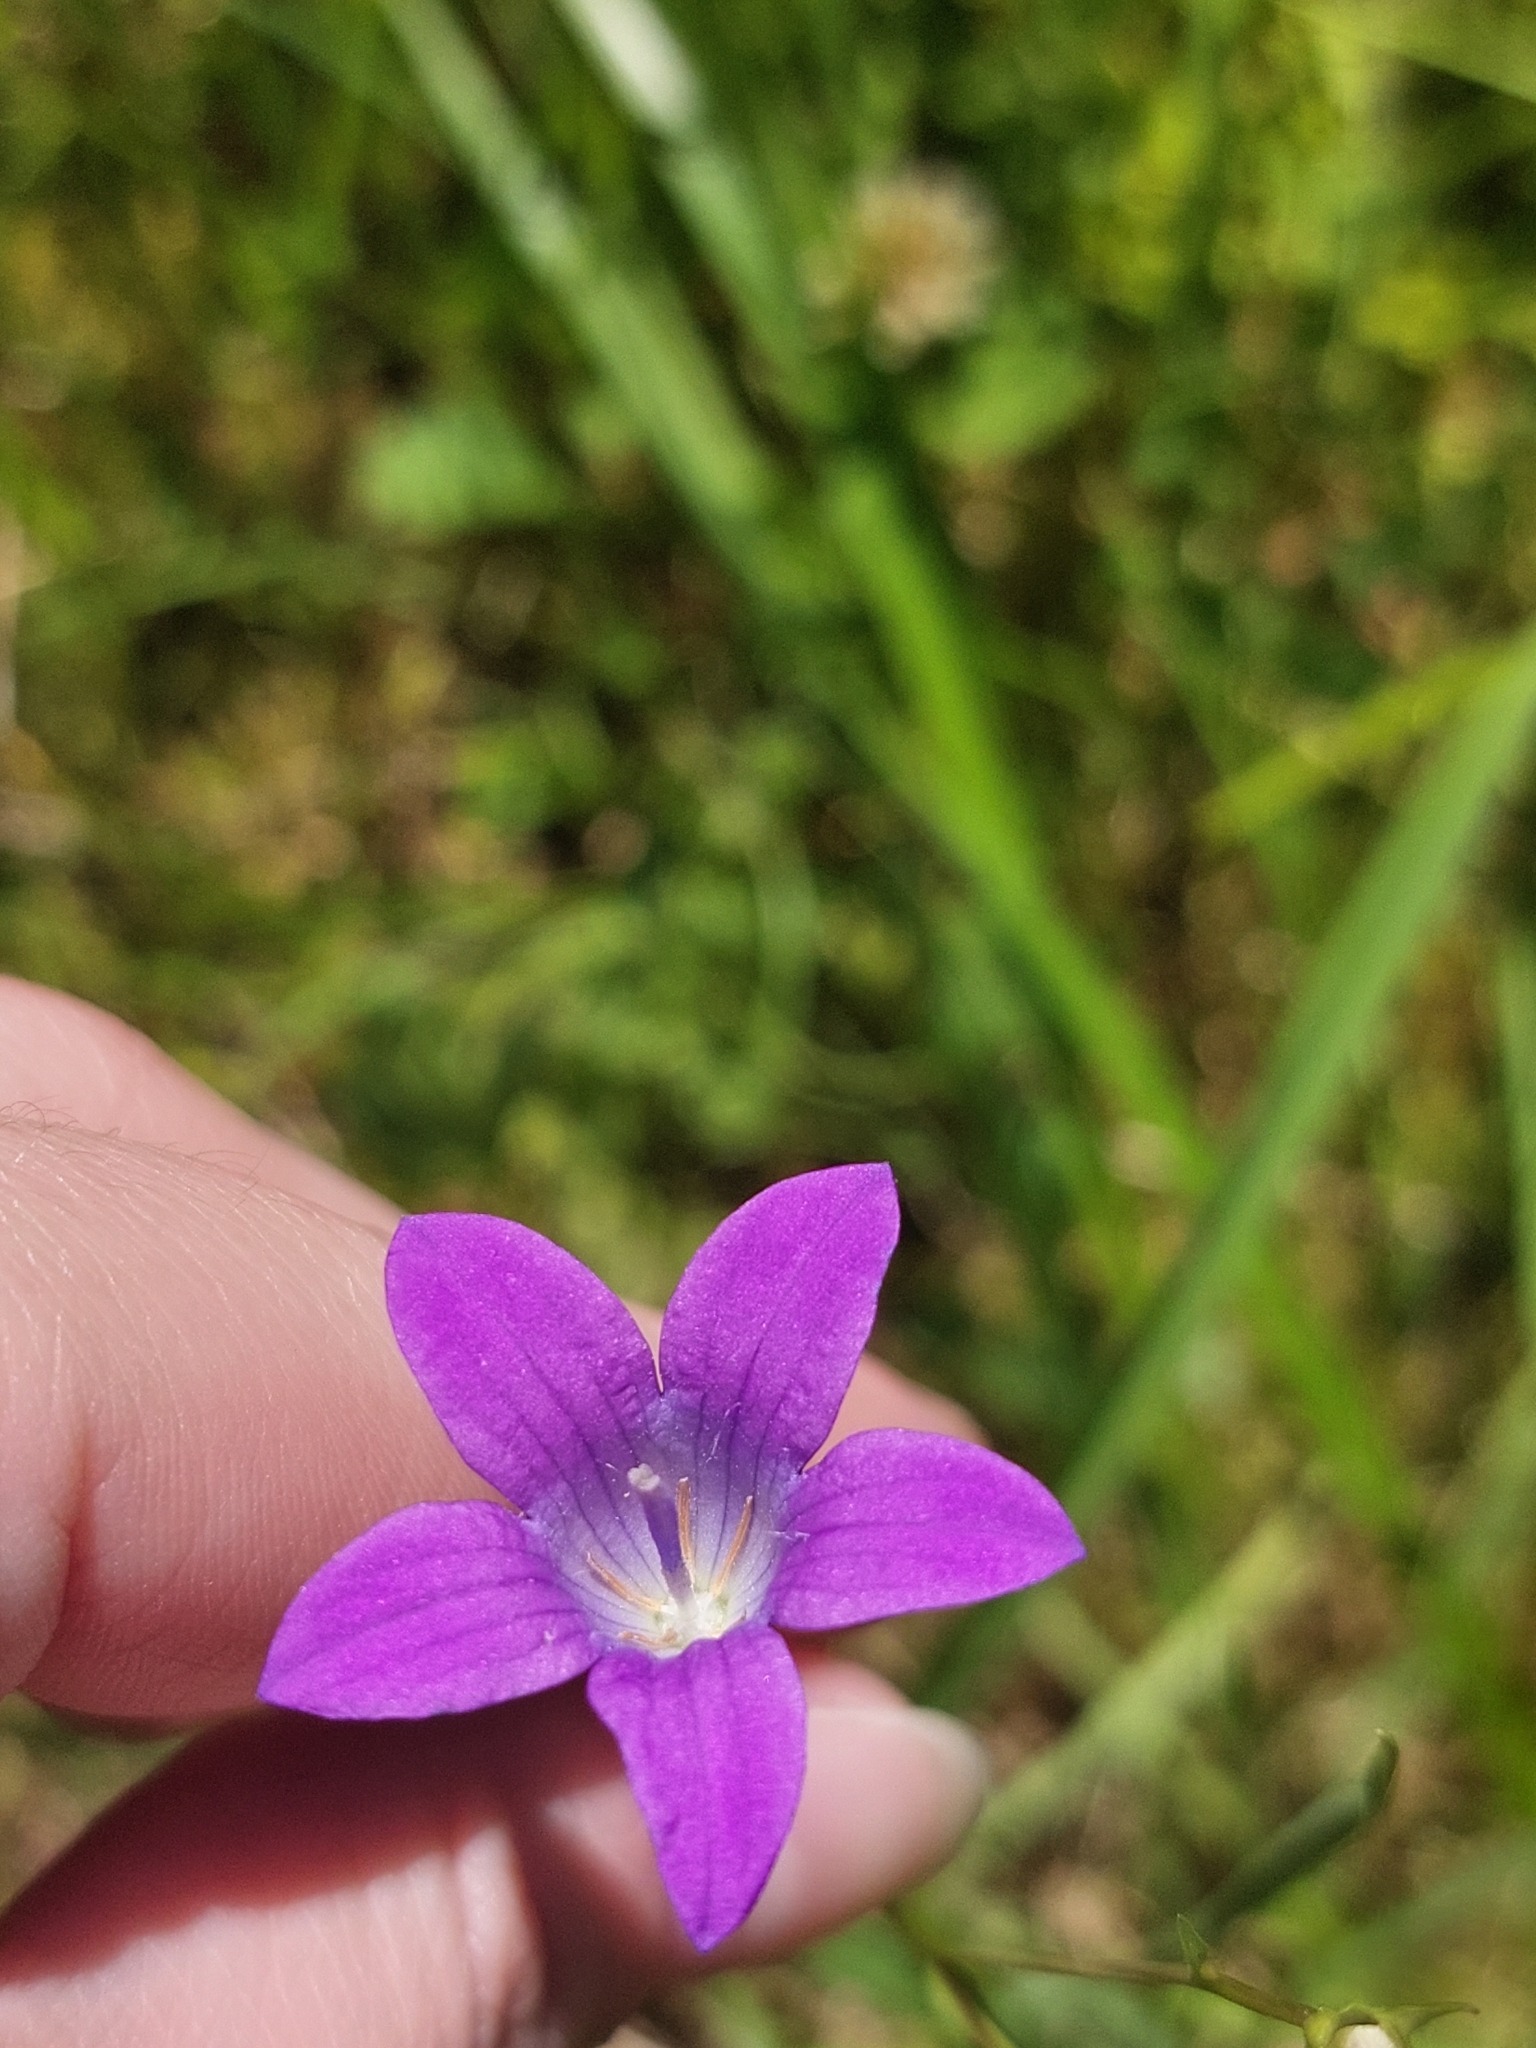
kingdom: Plantae
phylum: Tracheophyta
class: Magnoliopsida
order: Asterales
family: Campanulaceae
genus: Campanula
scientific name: Campanula patula
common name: Spreading bellflower
